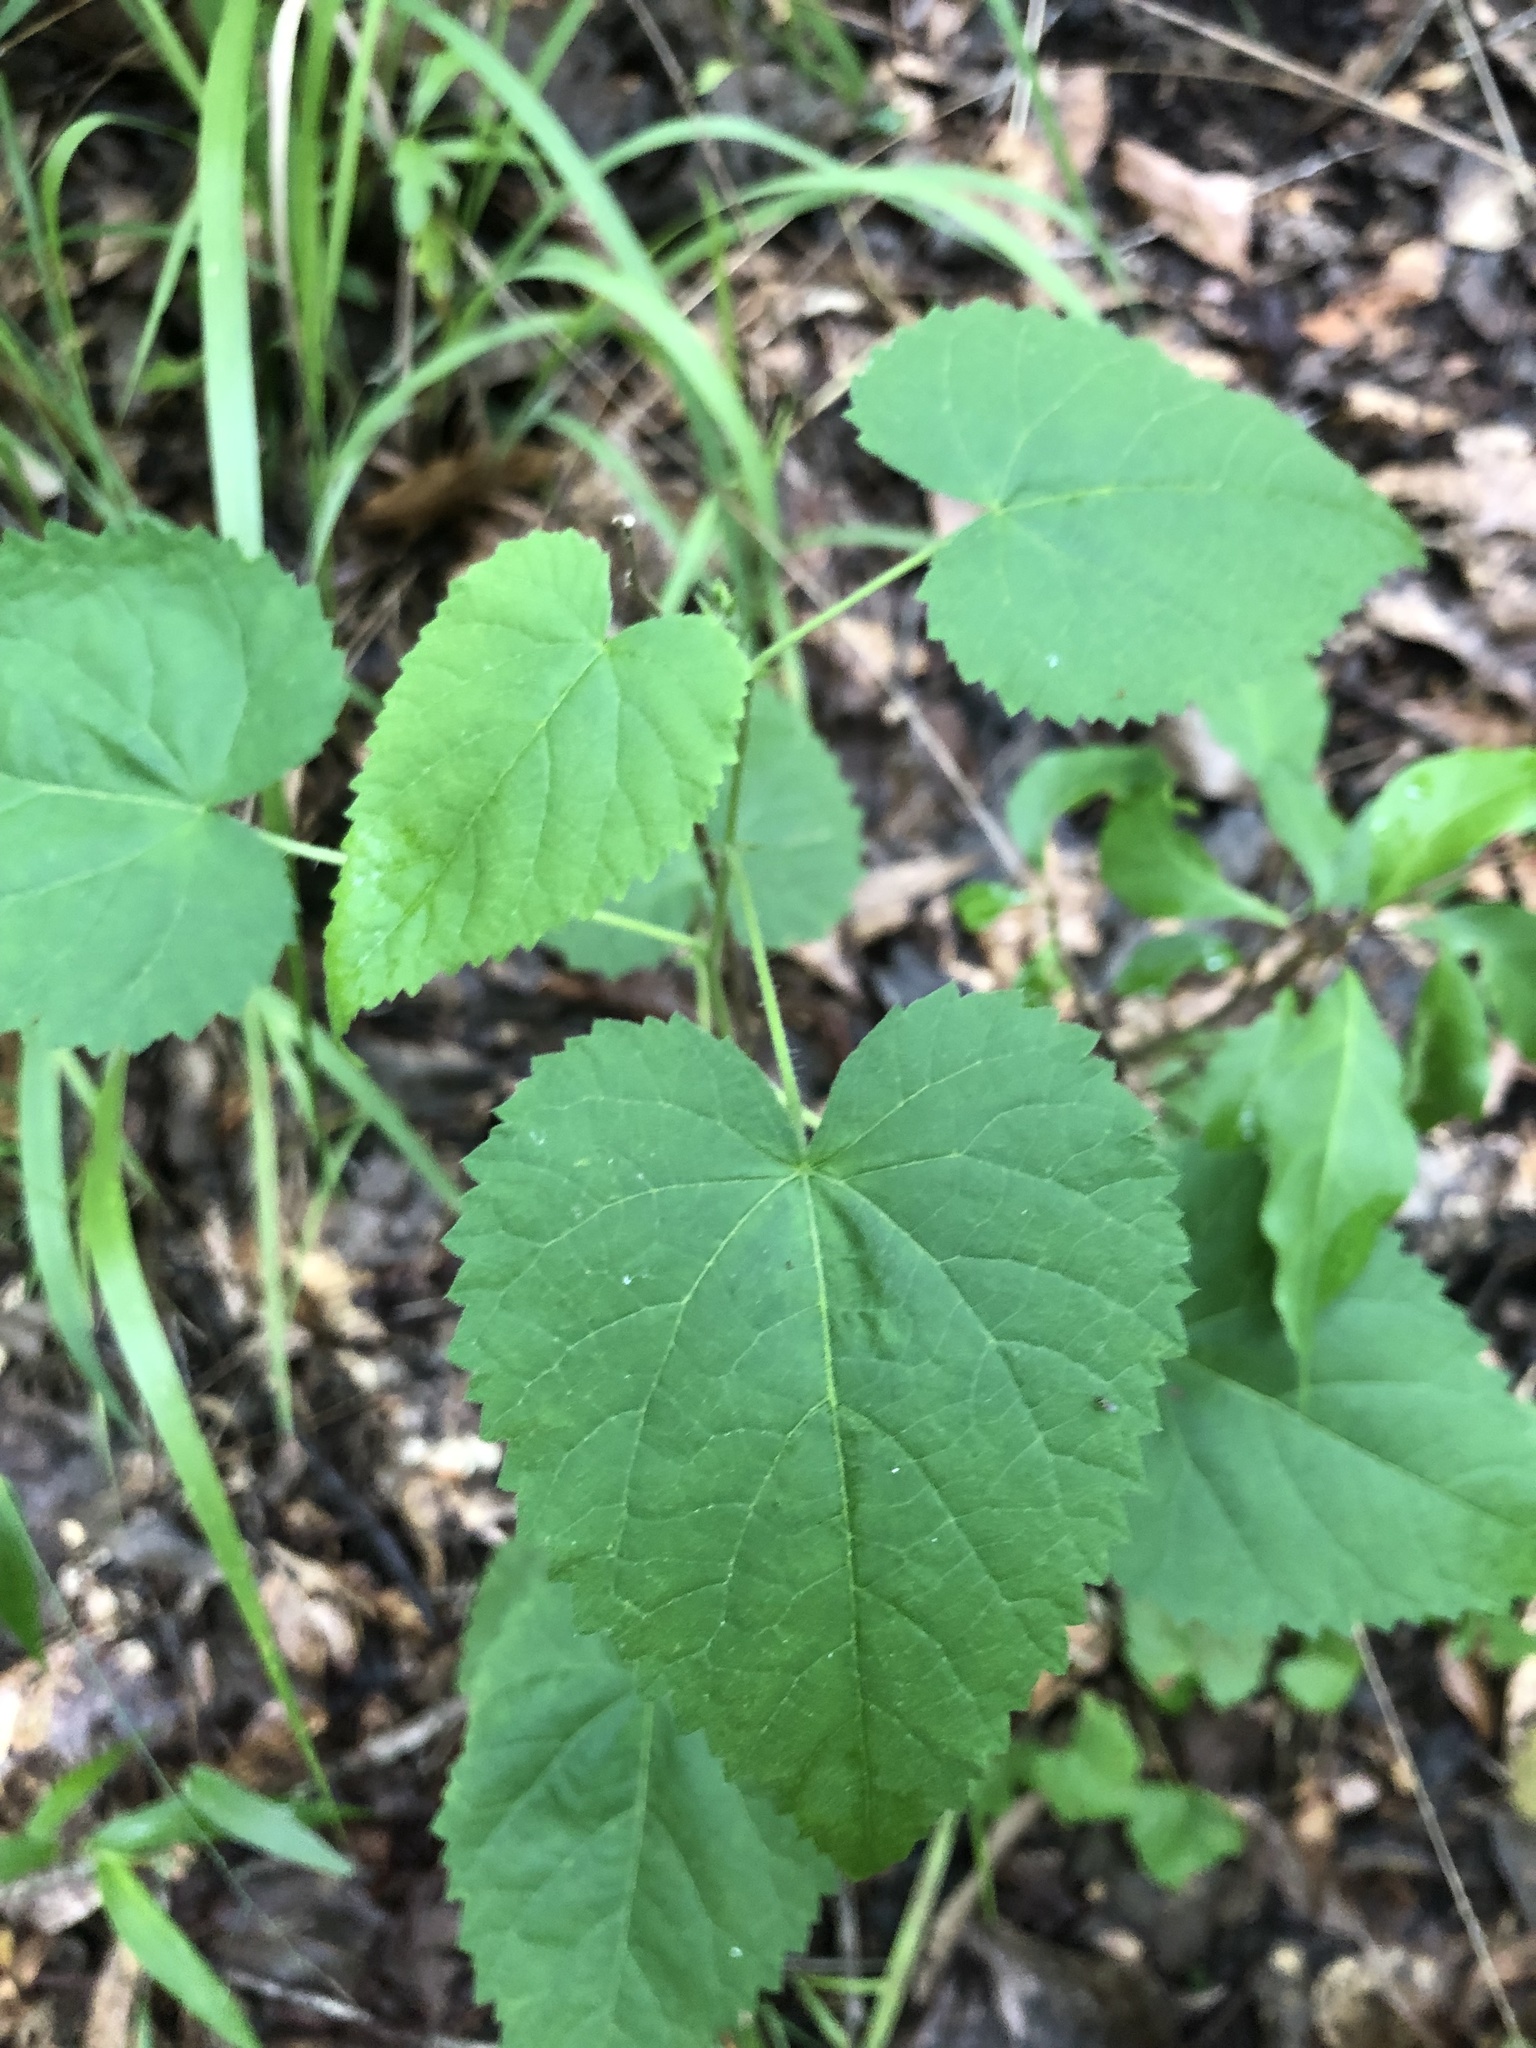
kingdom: Plantae
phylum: Tracheophyta
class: Magnoliopsida
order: Malpighiales
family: Euphorbiaceae
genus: Tragia
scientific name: Tragia cordata
